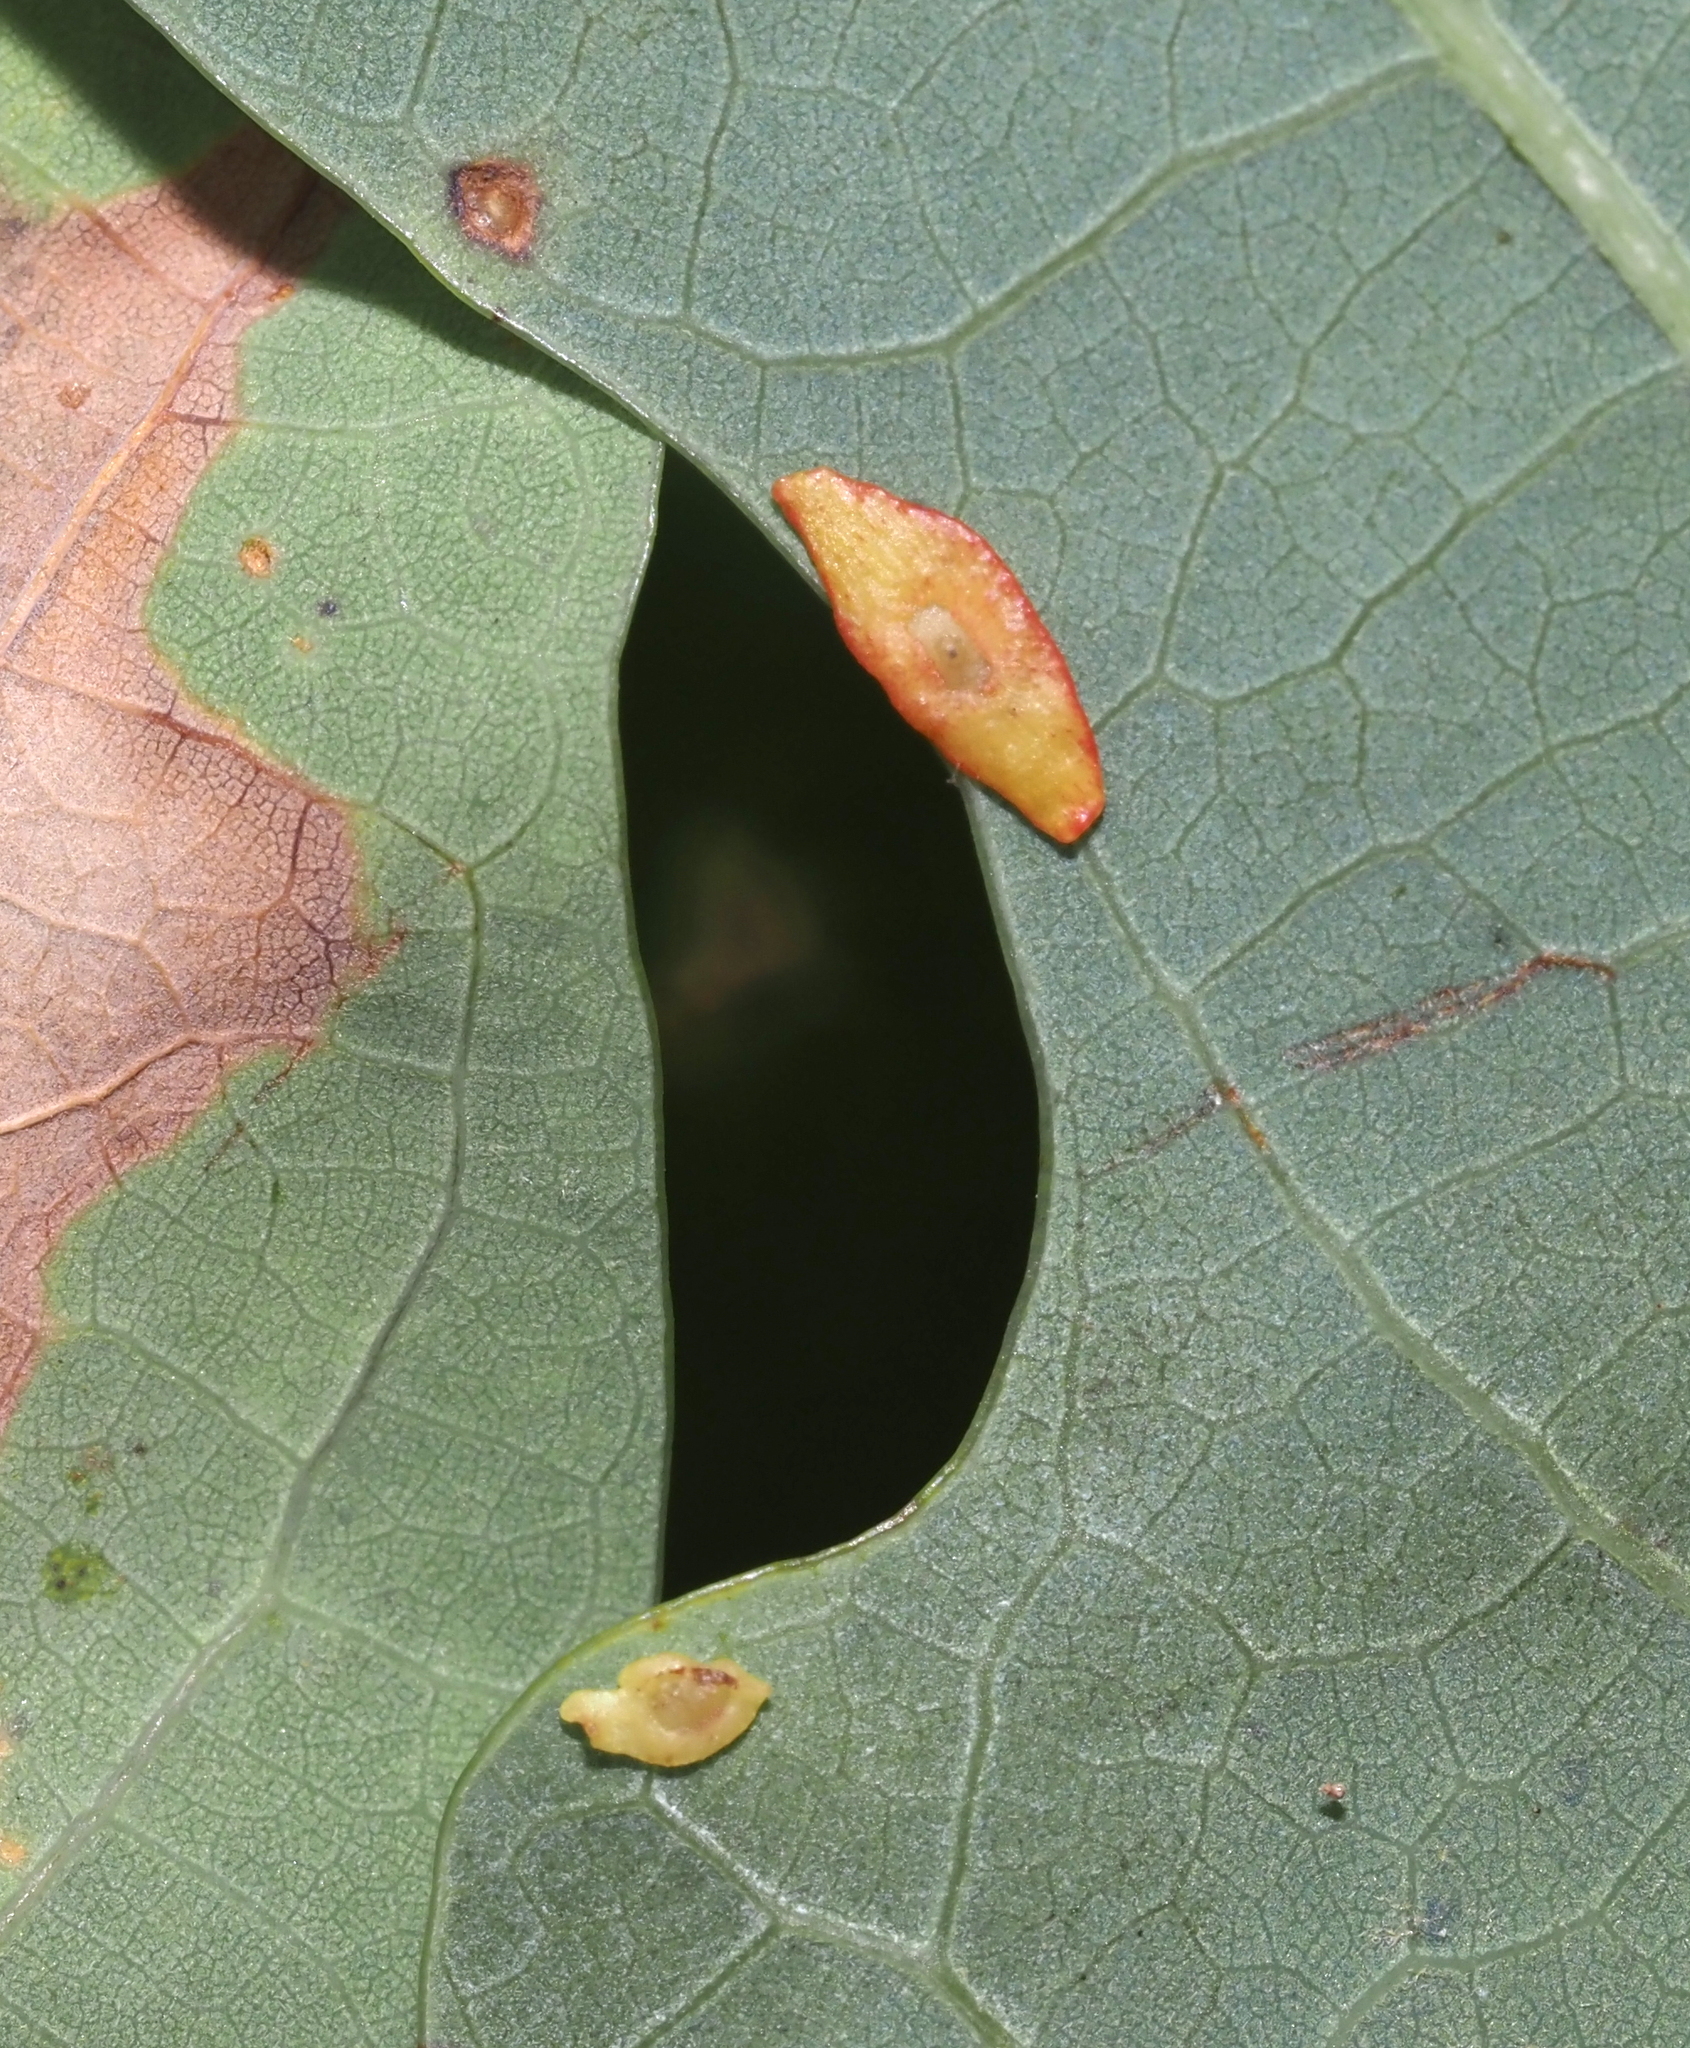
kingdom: Animalia
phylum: Arthropoda
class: Insecta
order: Hymenoptera
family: Cynipidae
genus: Phylloteras
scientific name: Phylloteras
